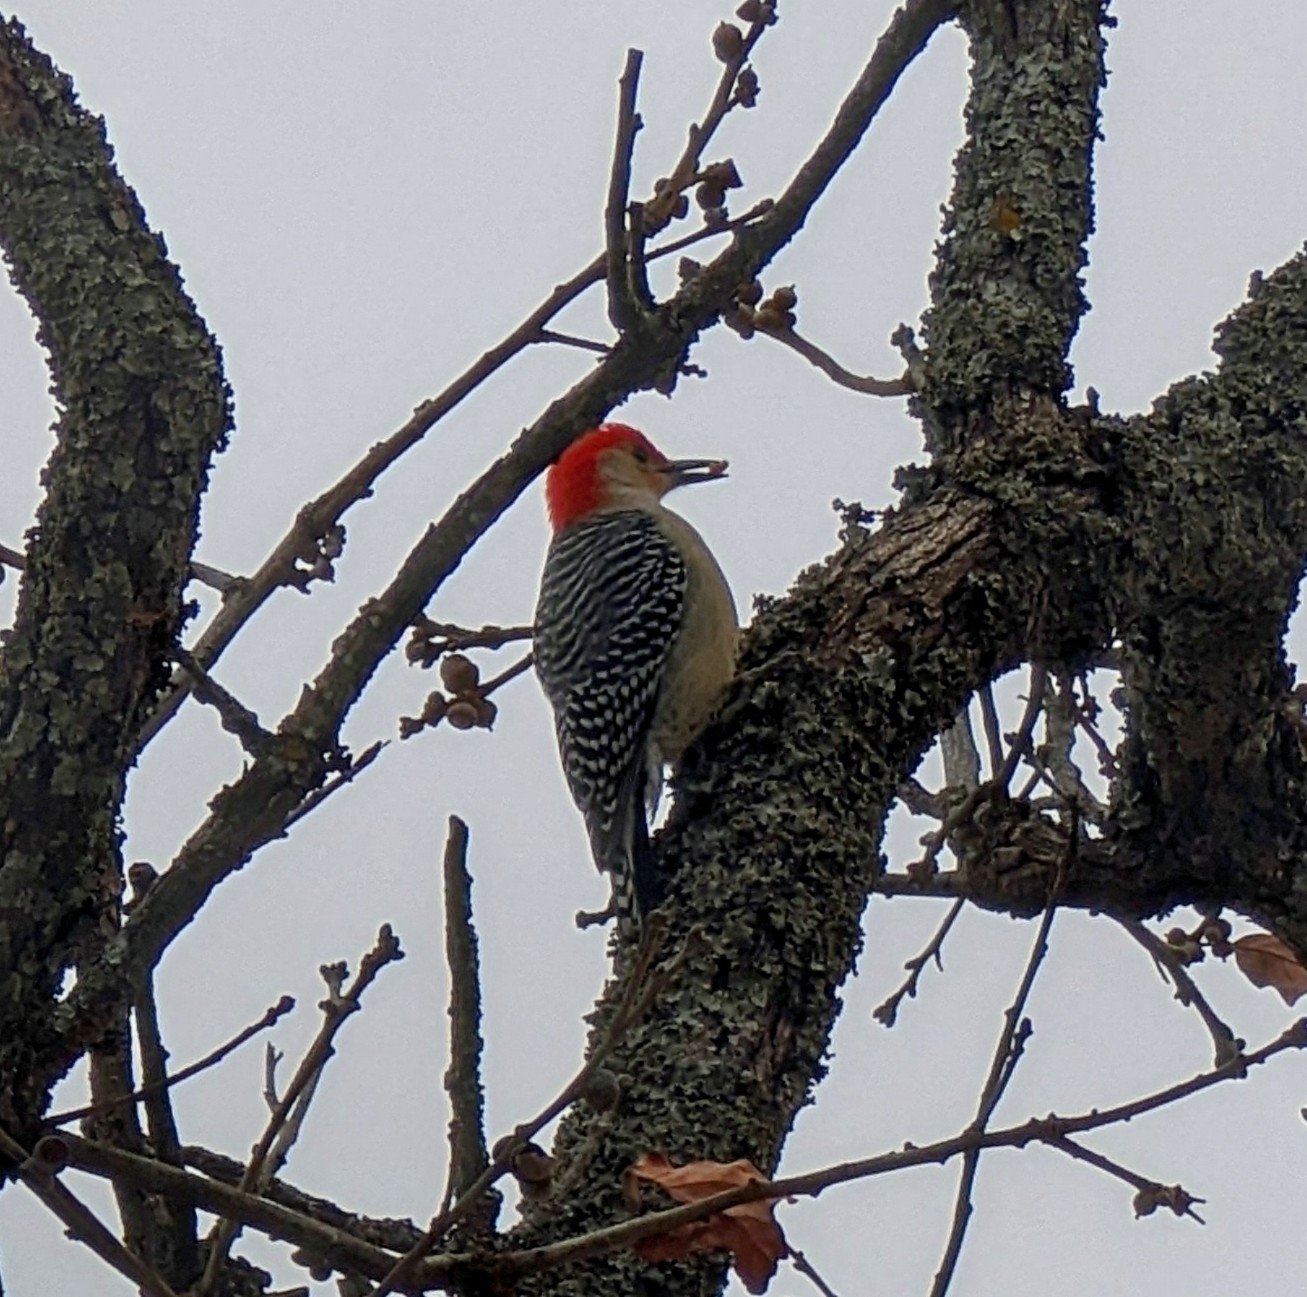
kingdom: Animalia
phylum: Chordata
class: Aves
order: Piciformes
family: Picidae
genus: Melanerpes
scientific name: Melanerpes carolinus
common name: Red-bellied woodpecker
